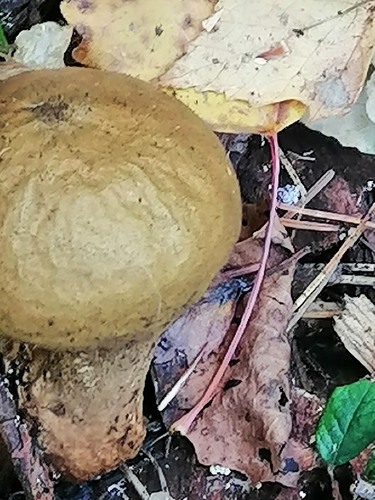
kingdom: Fungi
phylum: Basidiomycota
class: Agaricomycetes
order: Agaricales
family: Lycoperdaceae
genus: Lycoperdon
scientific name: Lycoperdon
